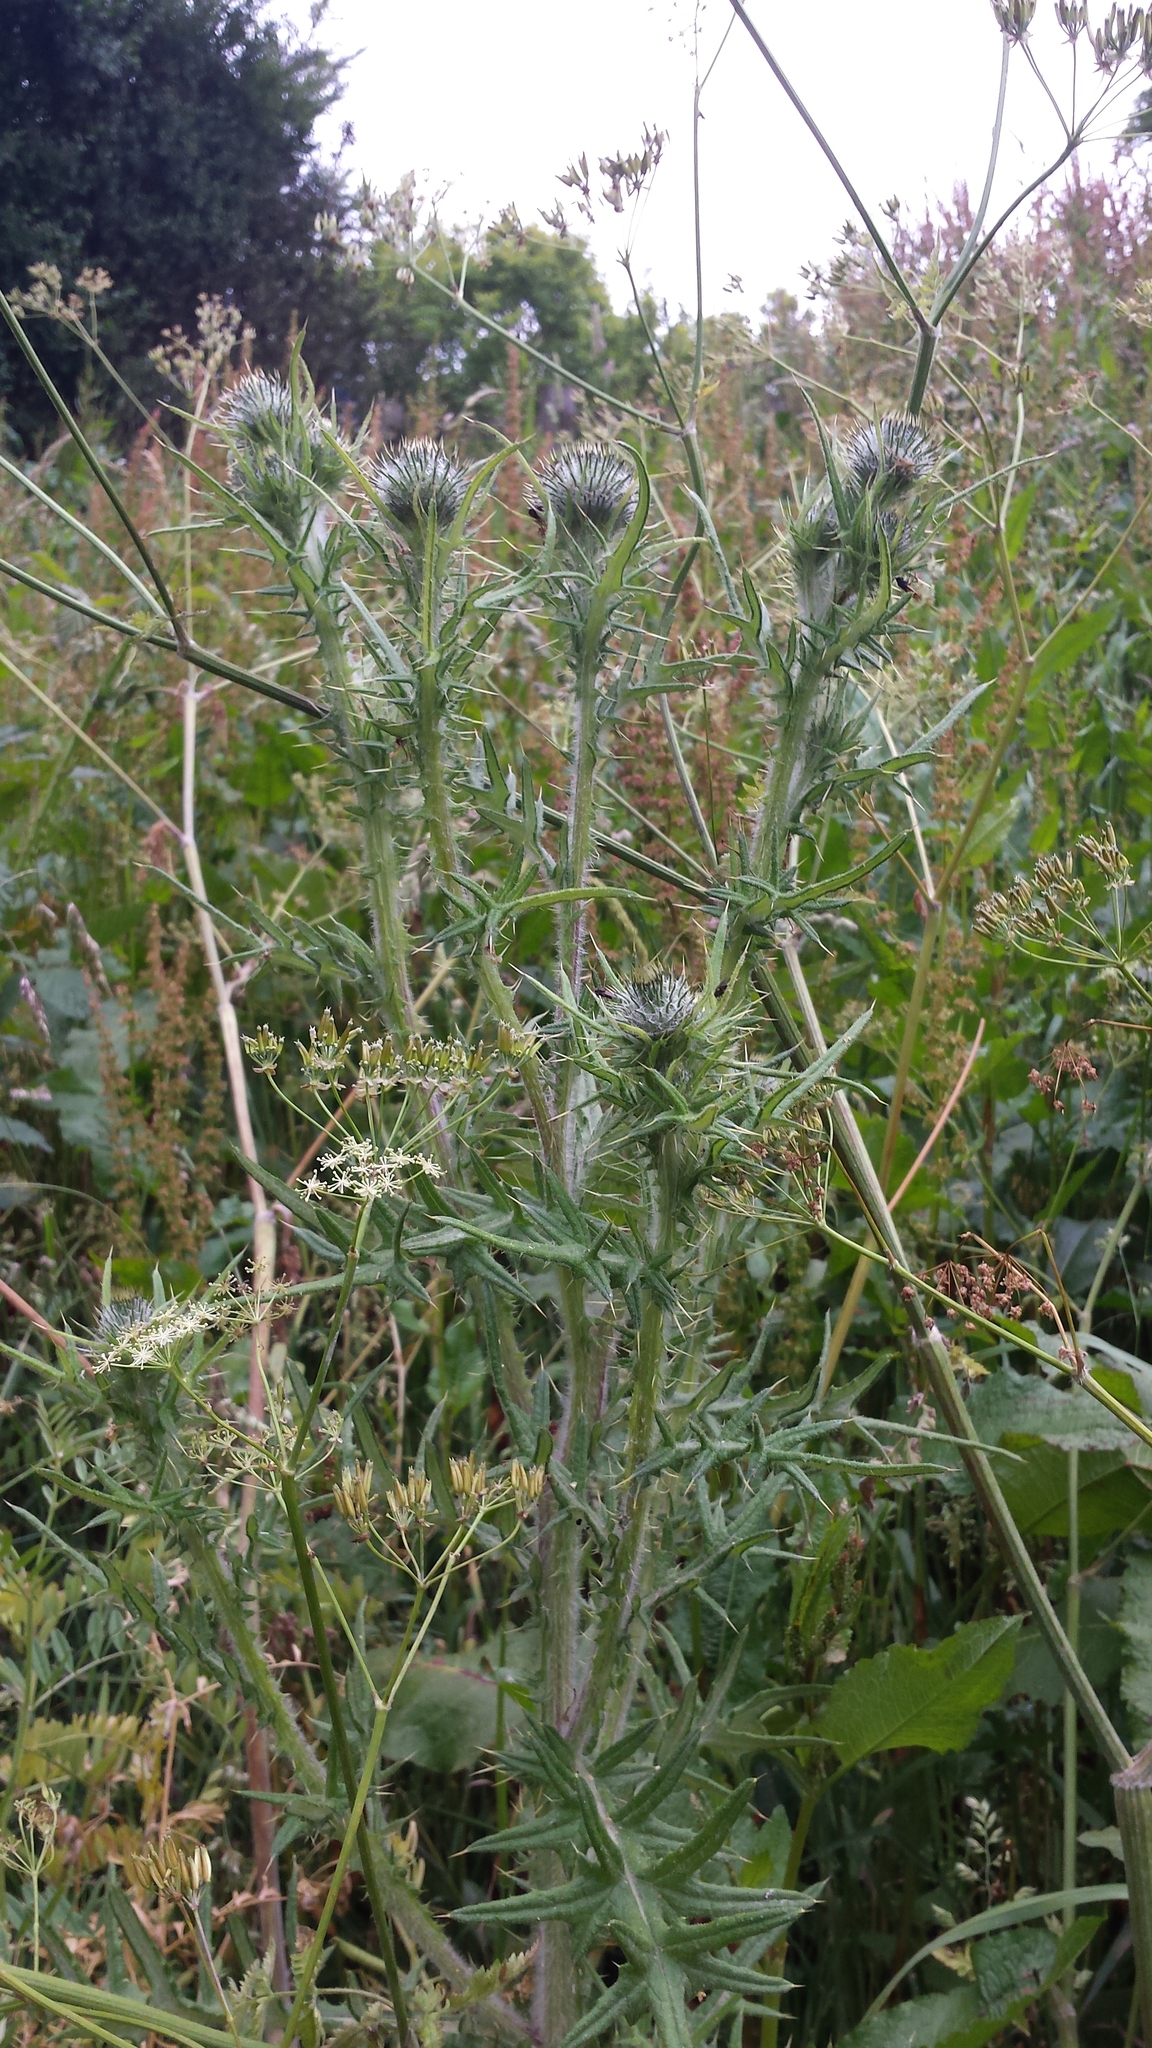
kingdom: Plantae
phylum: Tracheophyta
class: Magnoliopsida
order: Asterales
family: Asteraceae
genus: Cirsium
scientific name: Cirsium vulgare
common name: Bull thistle
